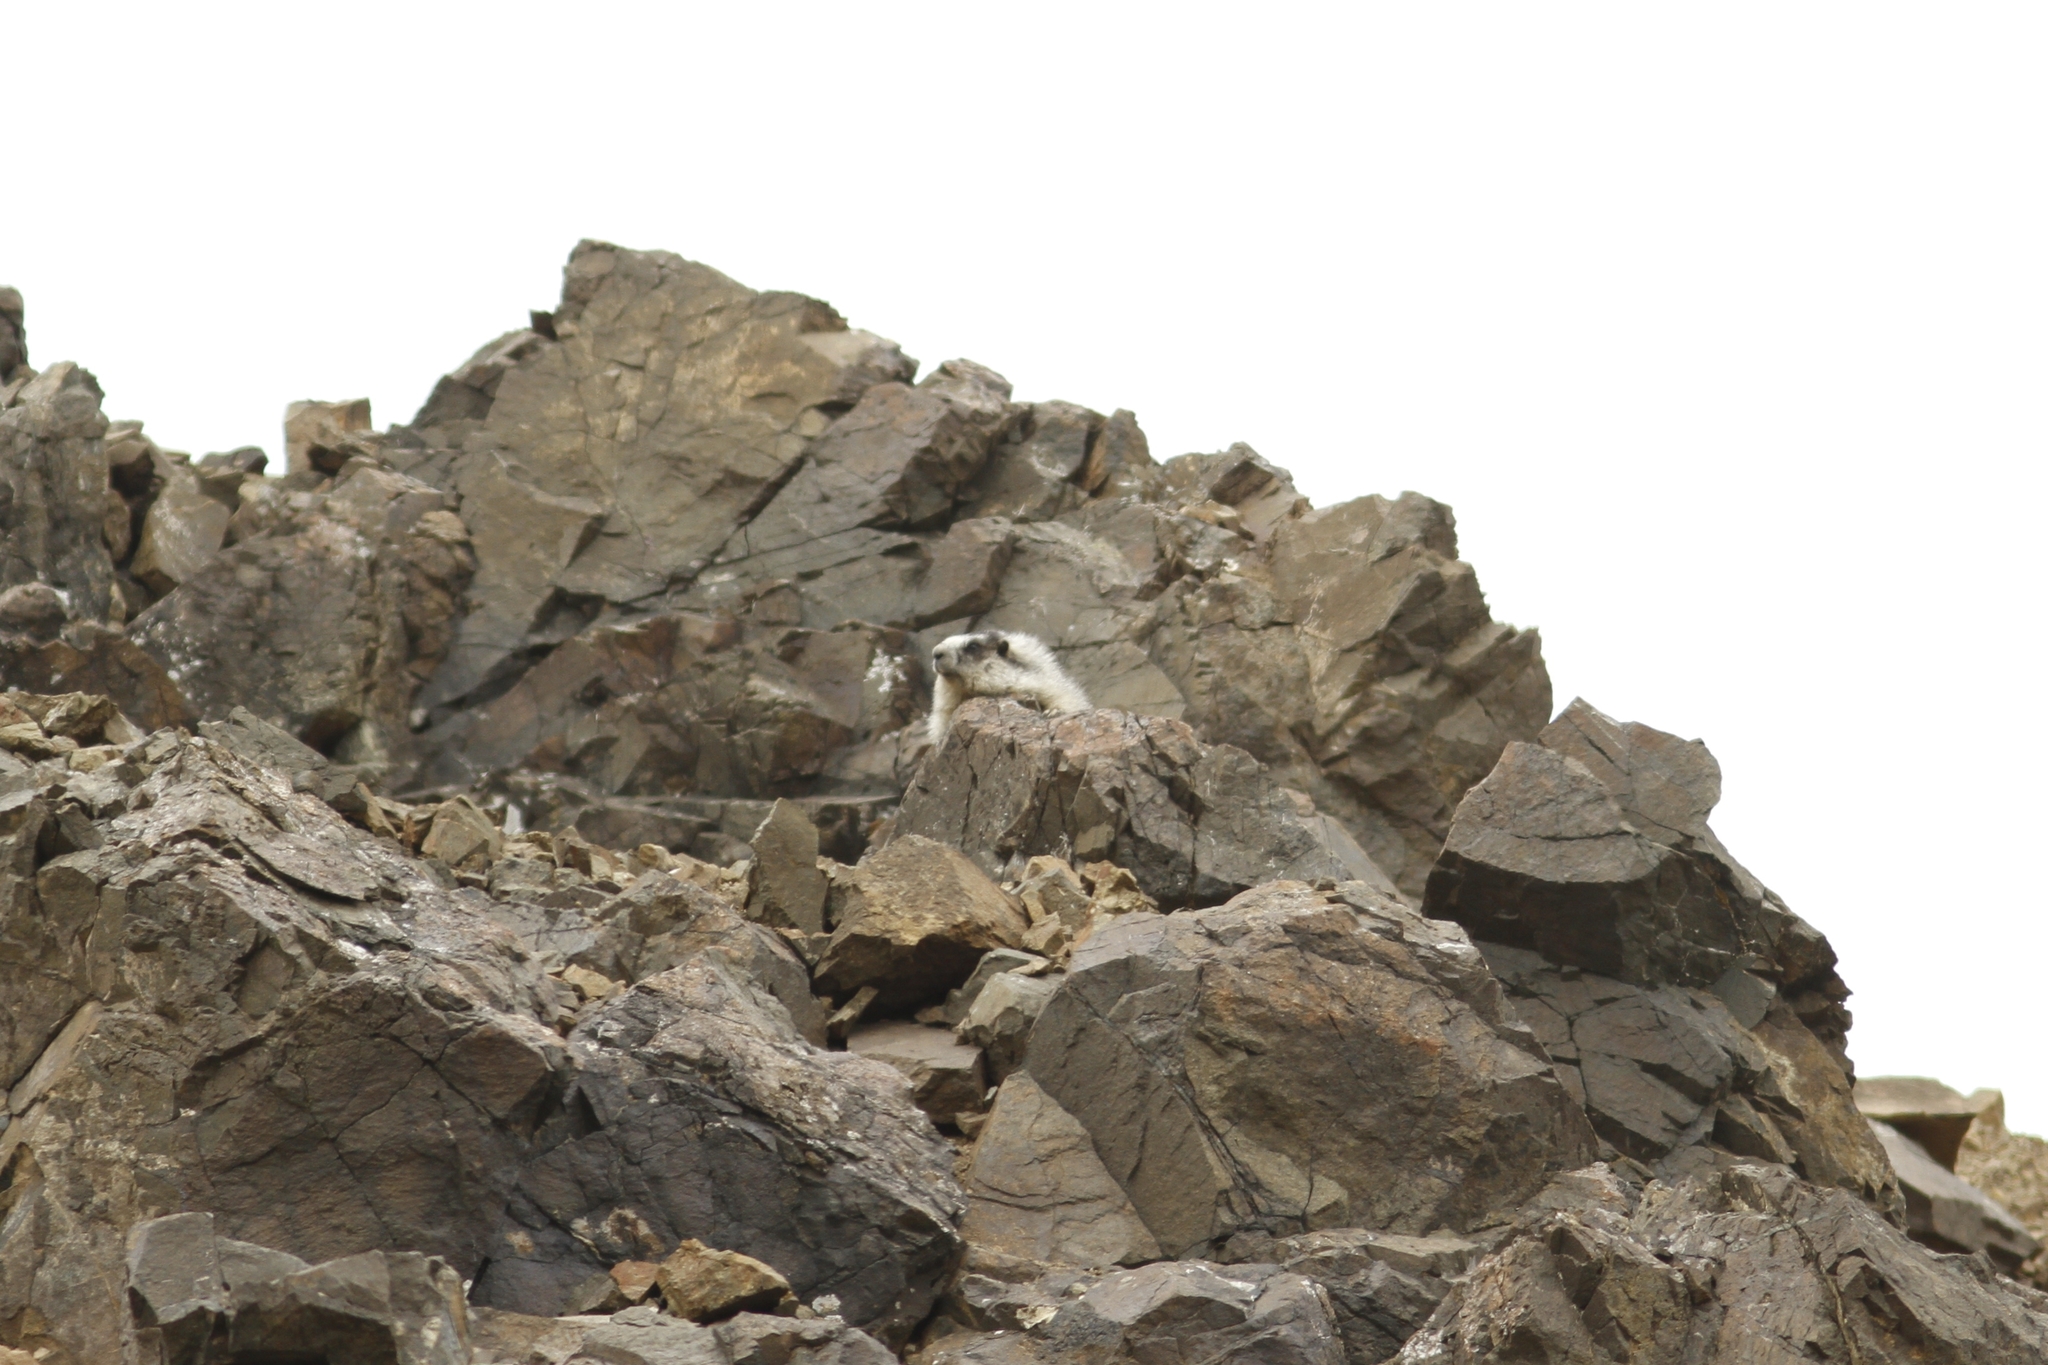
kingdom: Animalia
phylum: Chordata
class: Mammalia
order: Rodentia
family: Sciuridae
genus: Marmota
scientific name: Marmota caligata
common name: Hoary marmot
